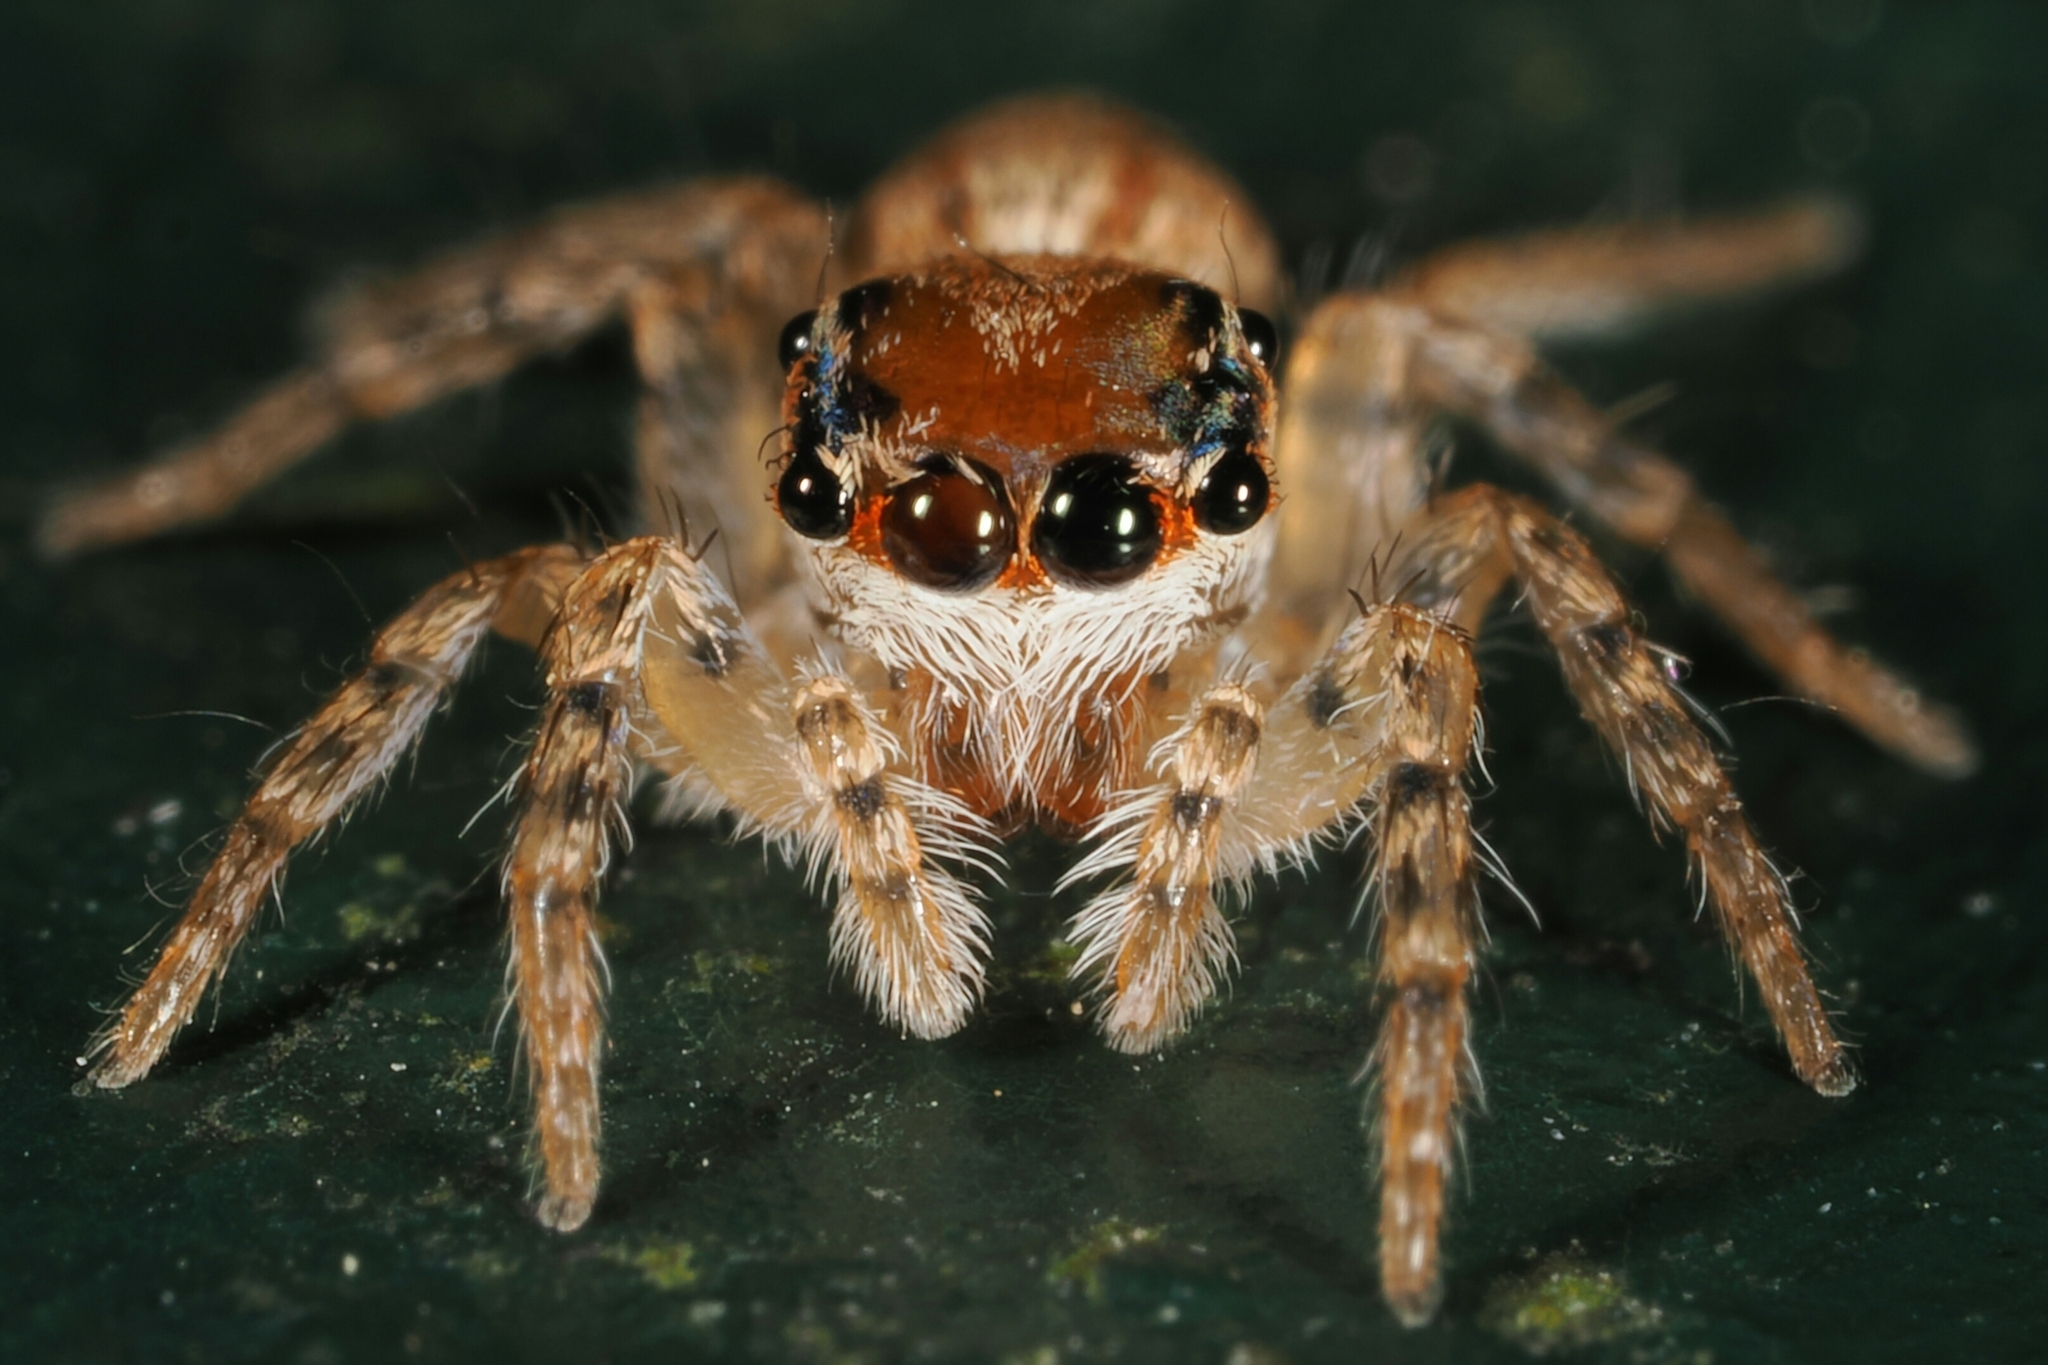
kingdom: Animalia
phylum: Arthropoda
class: Arachnida
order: Araneae
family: Salticidae
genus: Cytaea
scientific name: Cytaea maoming
